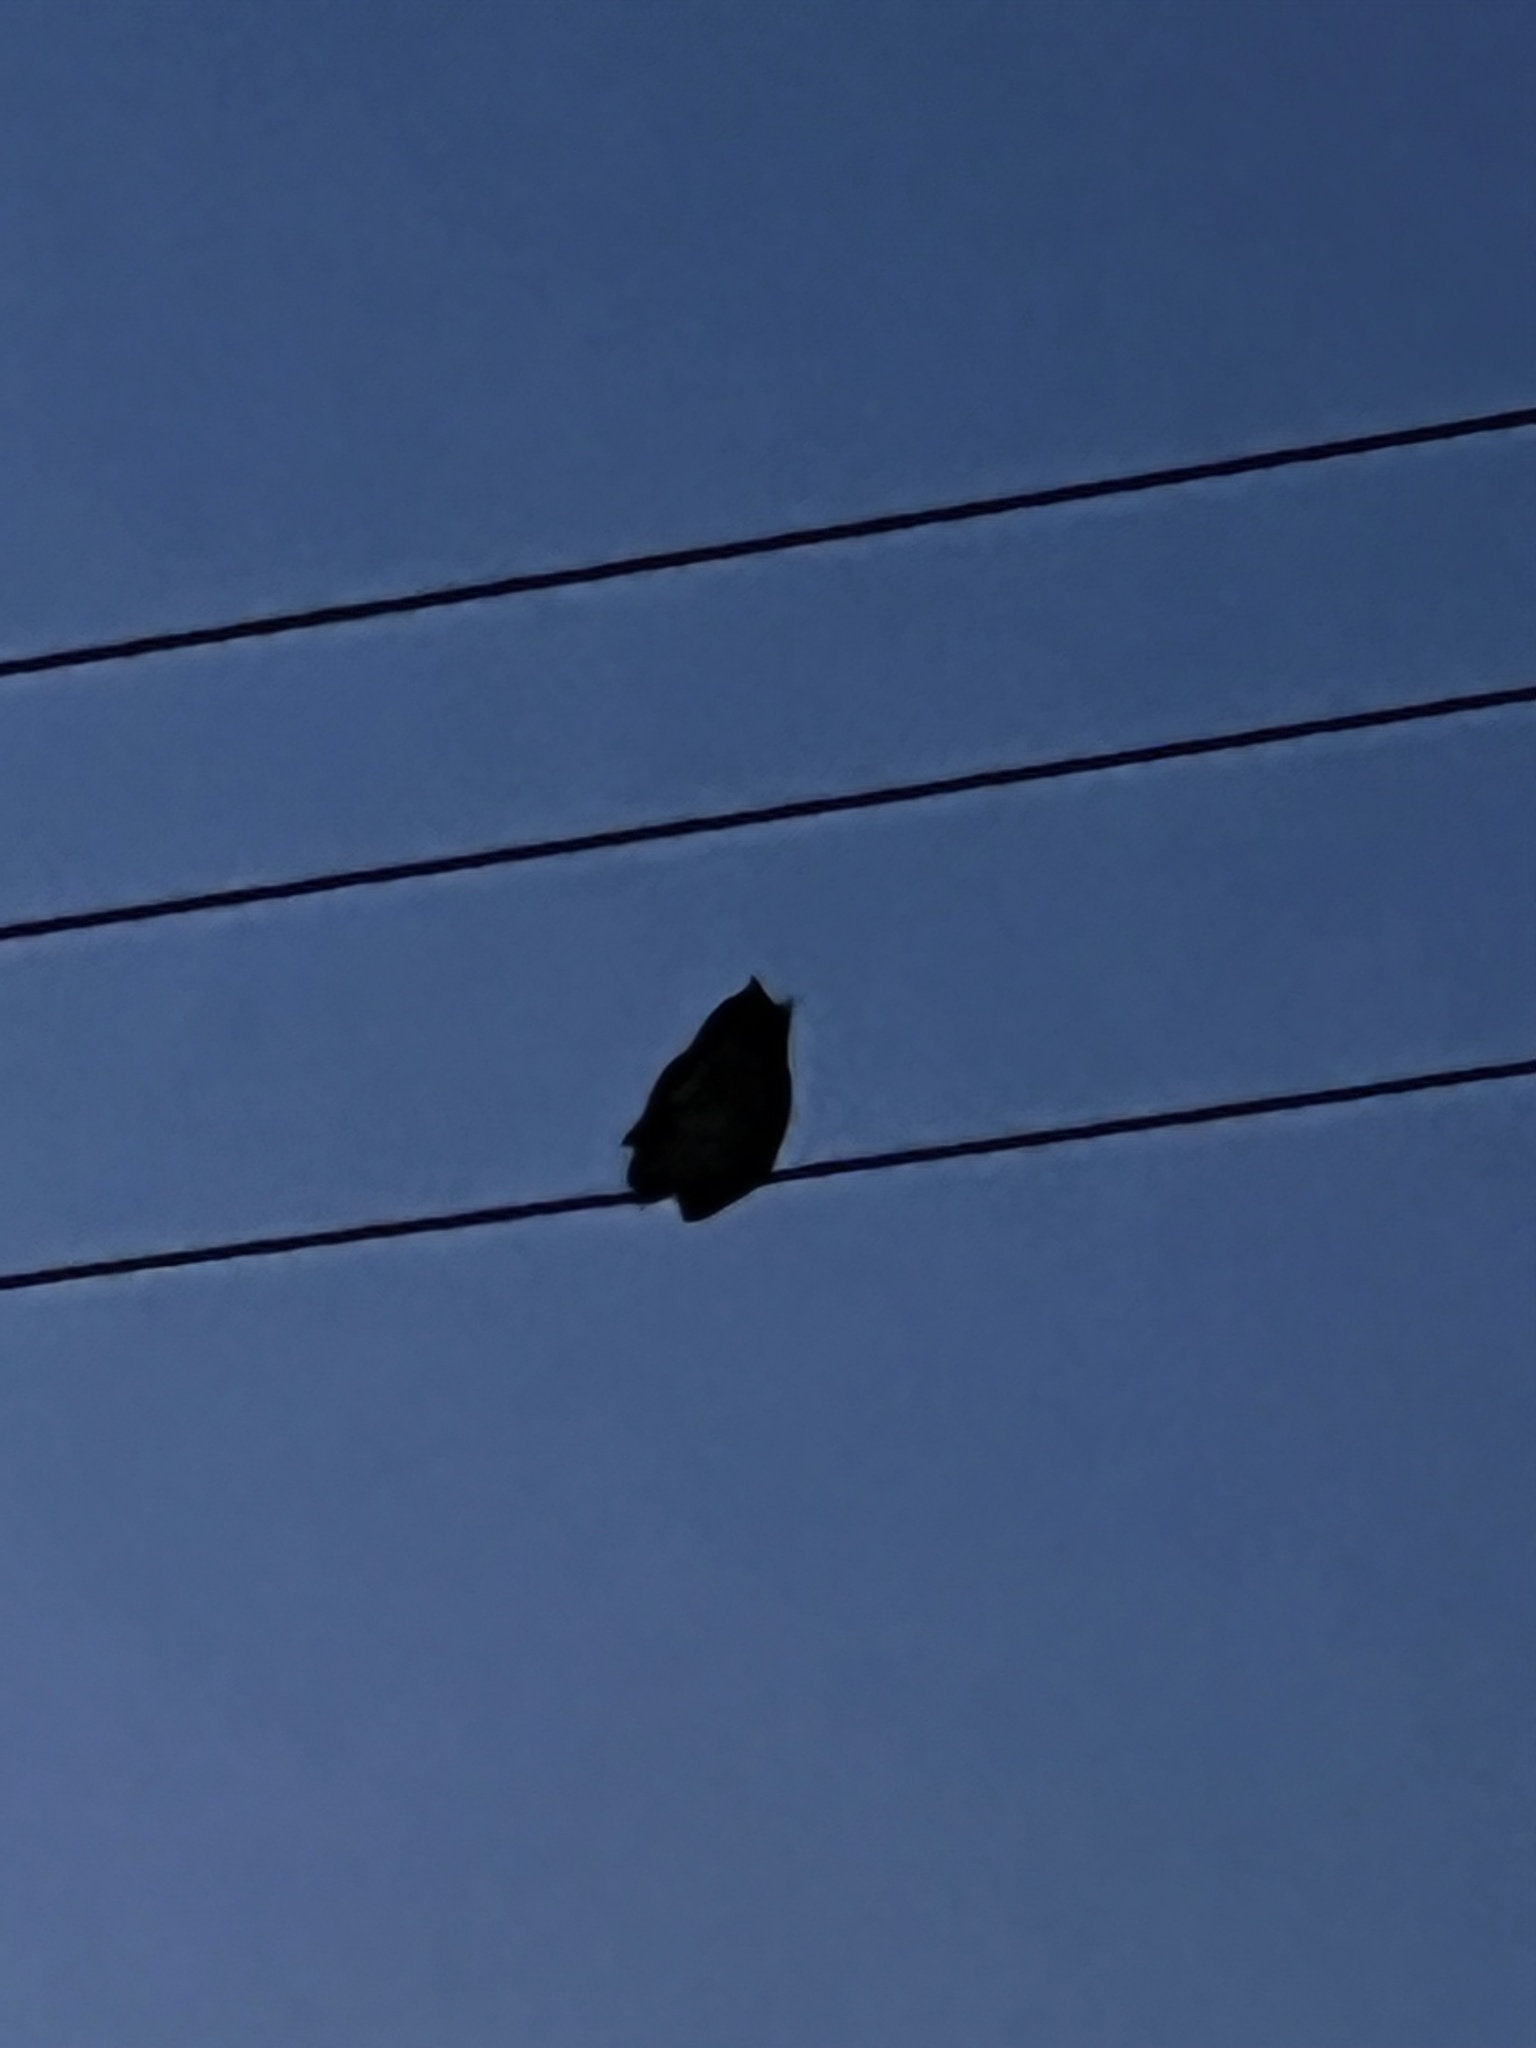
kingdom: Animalia
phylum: Chordata
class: Aves
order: Strigiformes
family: Strigidae
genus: Bubo
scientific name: Bubo virginianus
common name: Great horned owl
